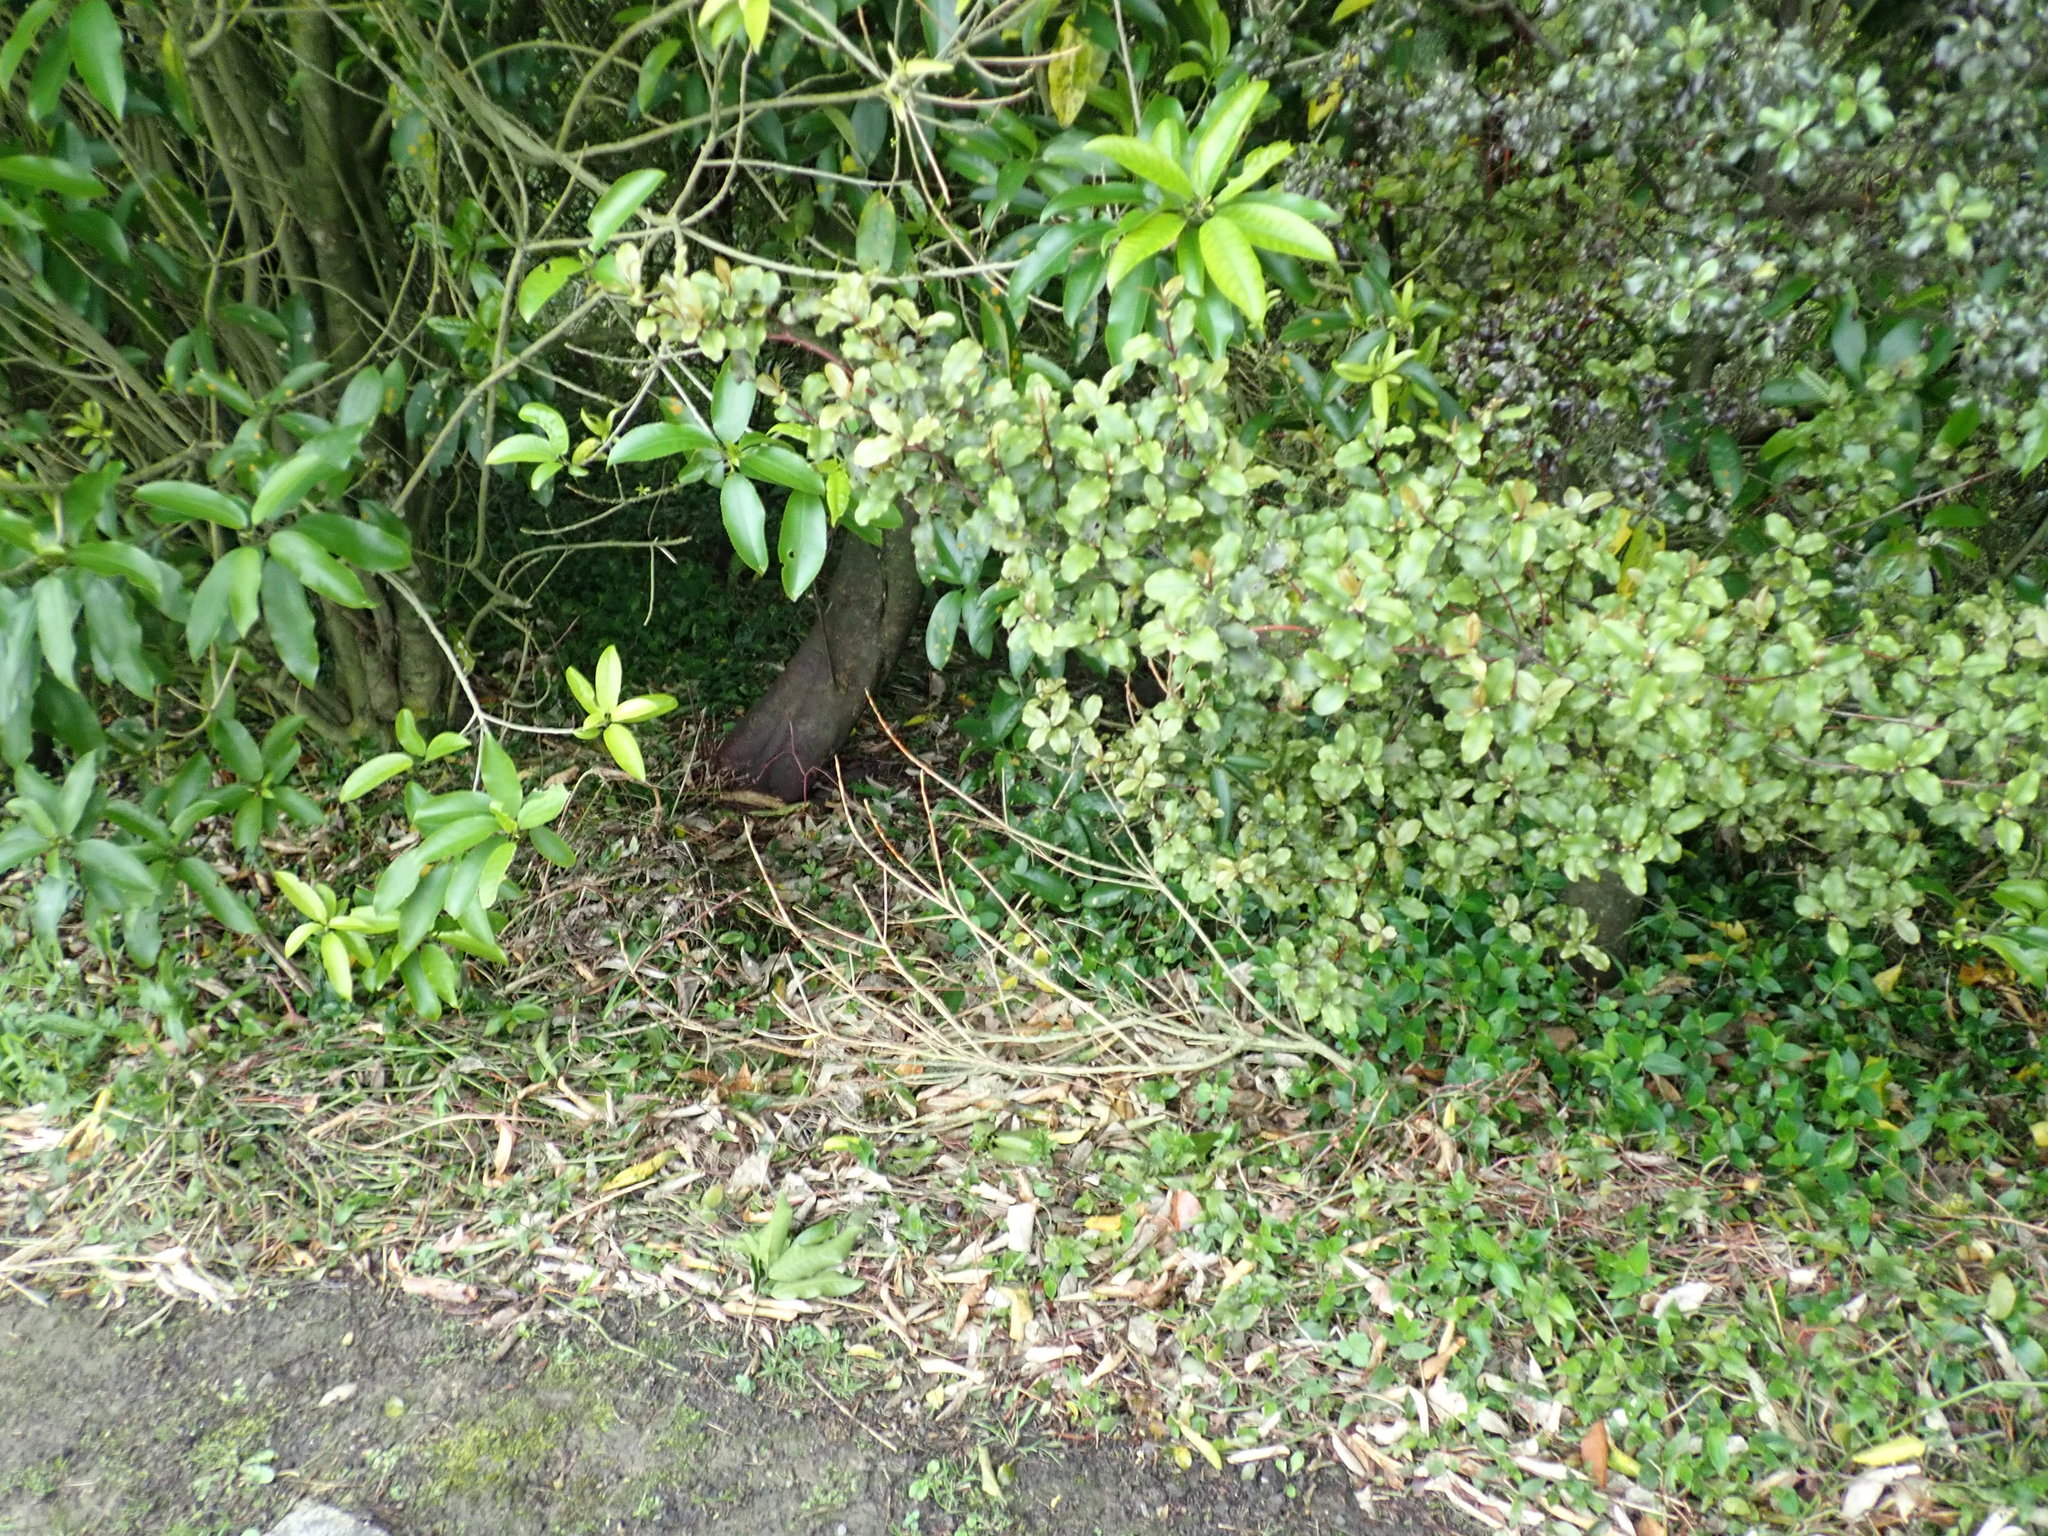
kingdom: Plantae
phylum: Tracheophyta
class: Magnoliopsida
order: Ericales
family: Primulaceae
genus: Myrsine
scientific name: Myrsine australis
